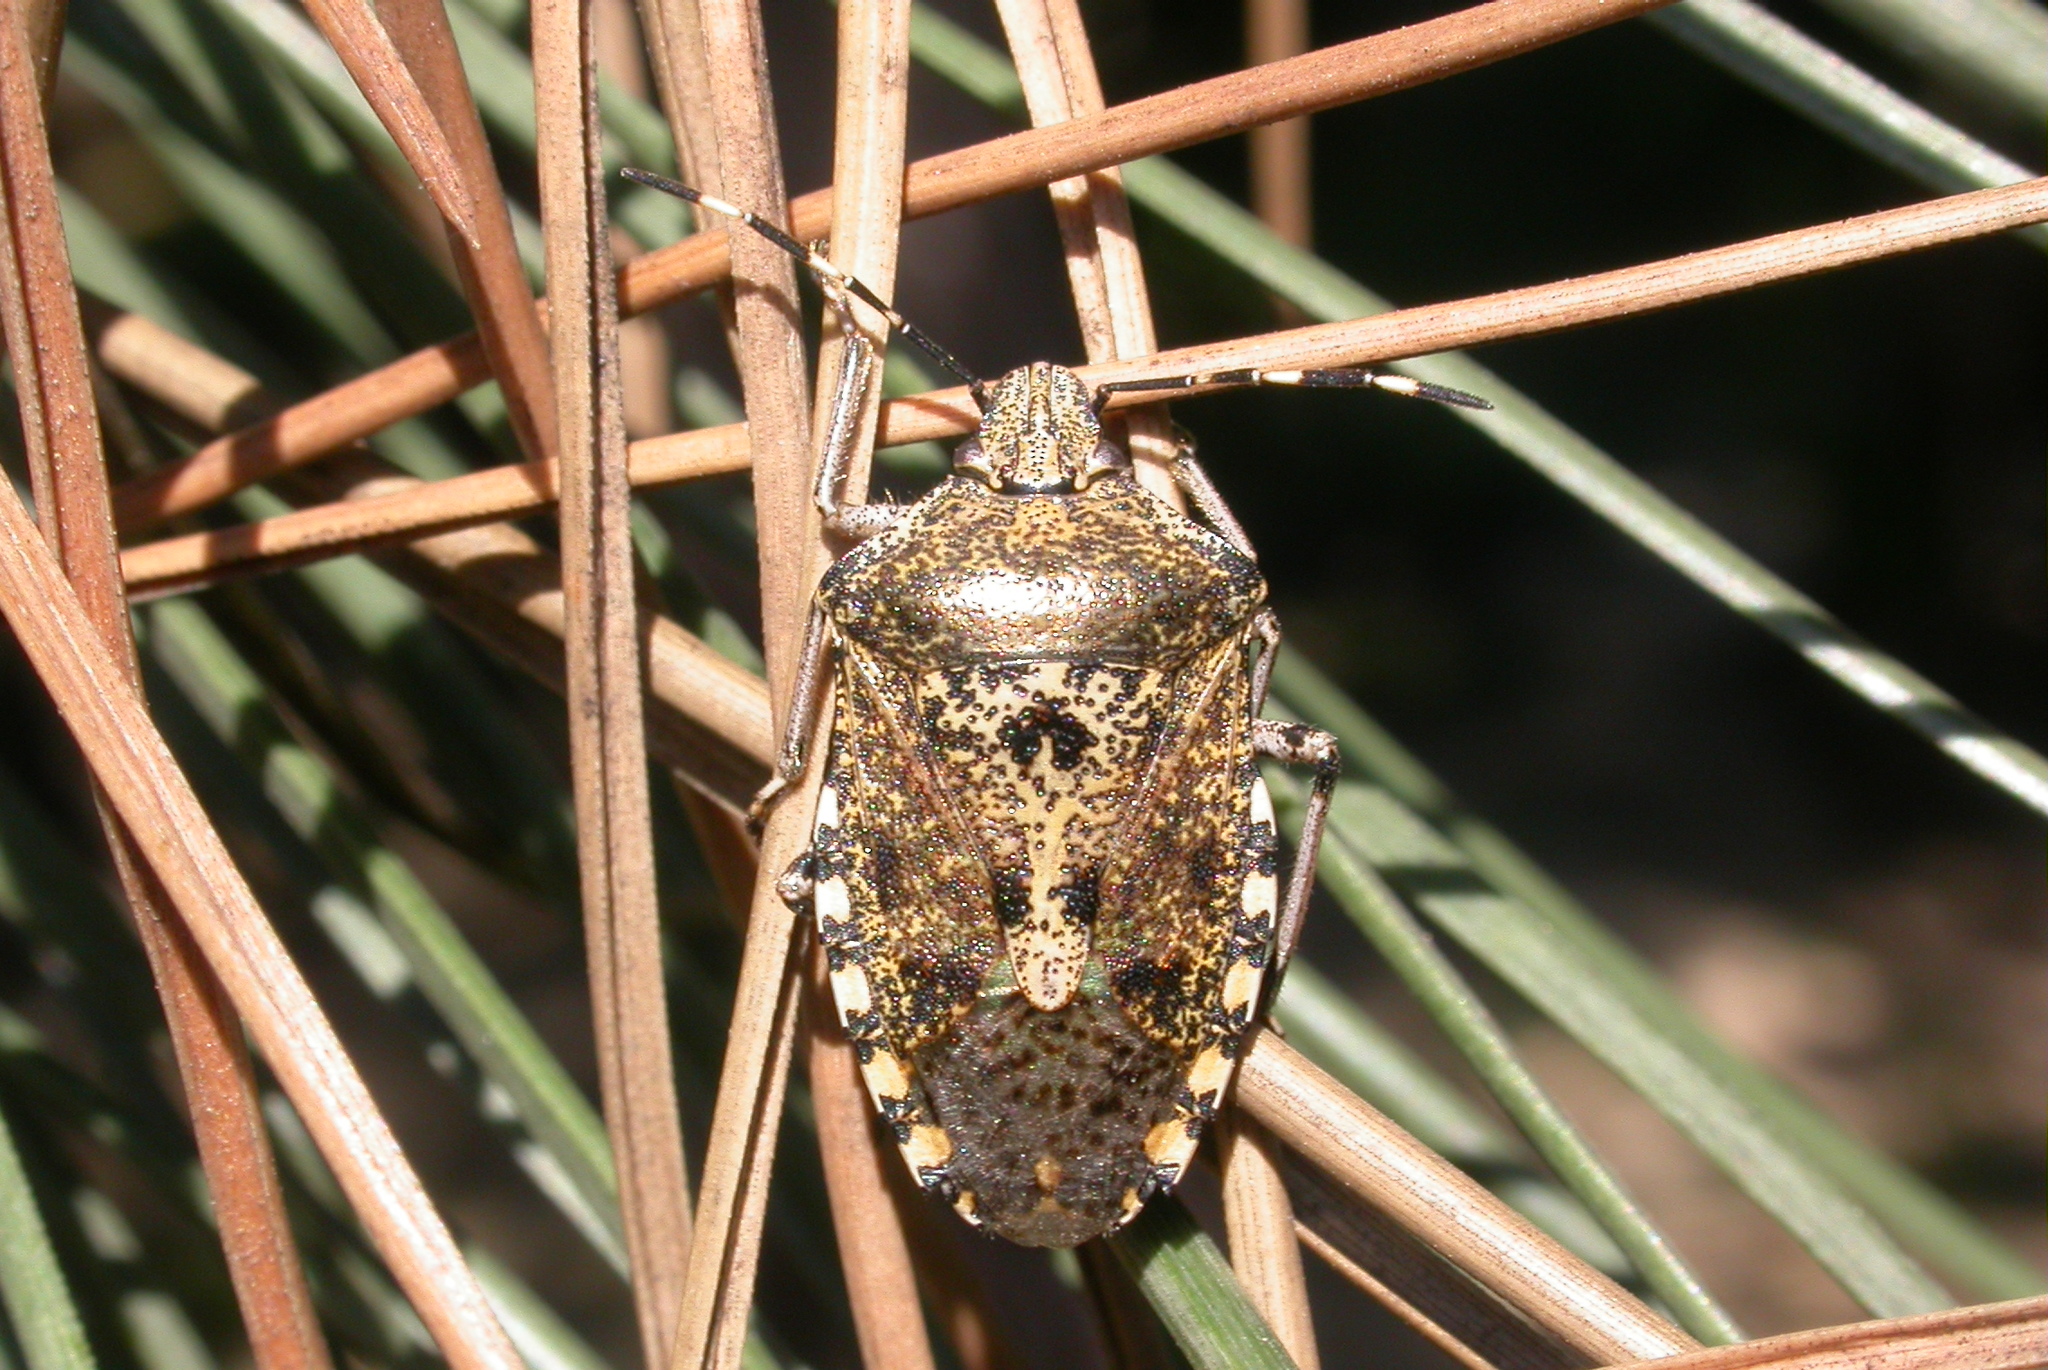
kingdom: Animalia
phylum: Arthropoda
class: Insecta
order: Hemiptera
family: Pentatomidae
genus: Rhaphigaster
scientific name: Rhaphigaster nebulosa
